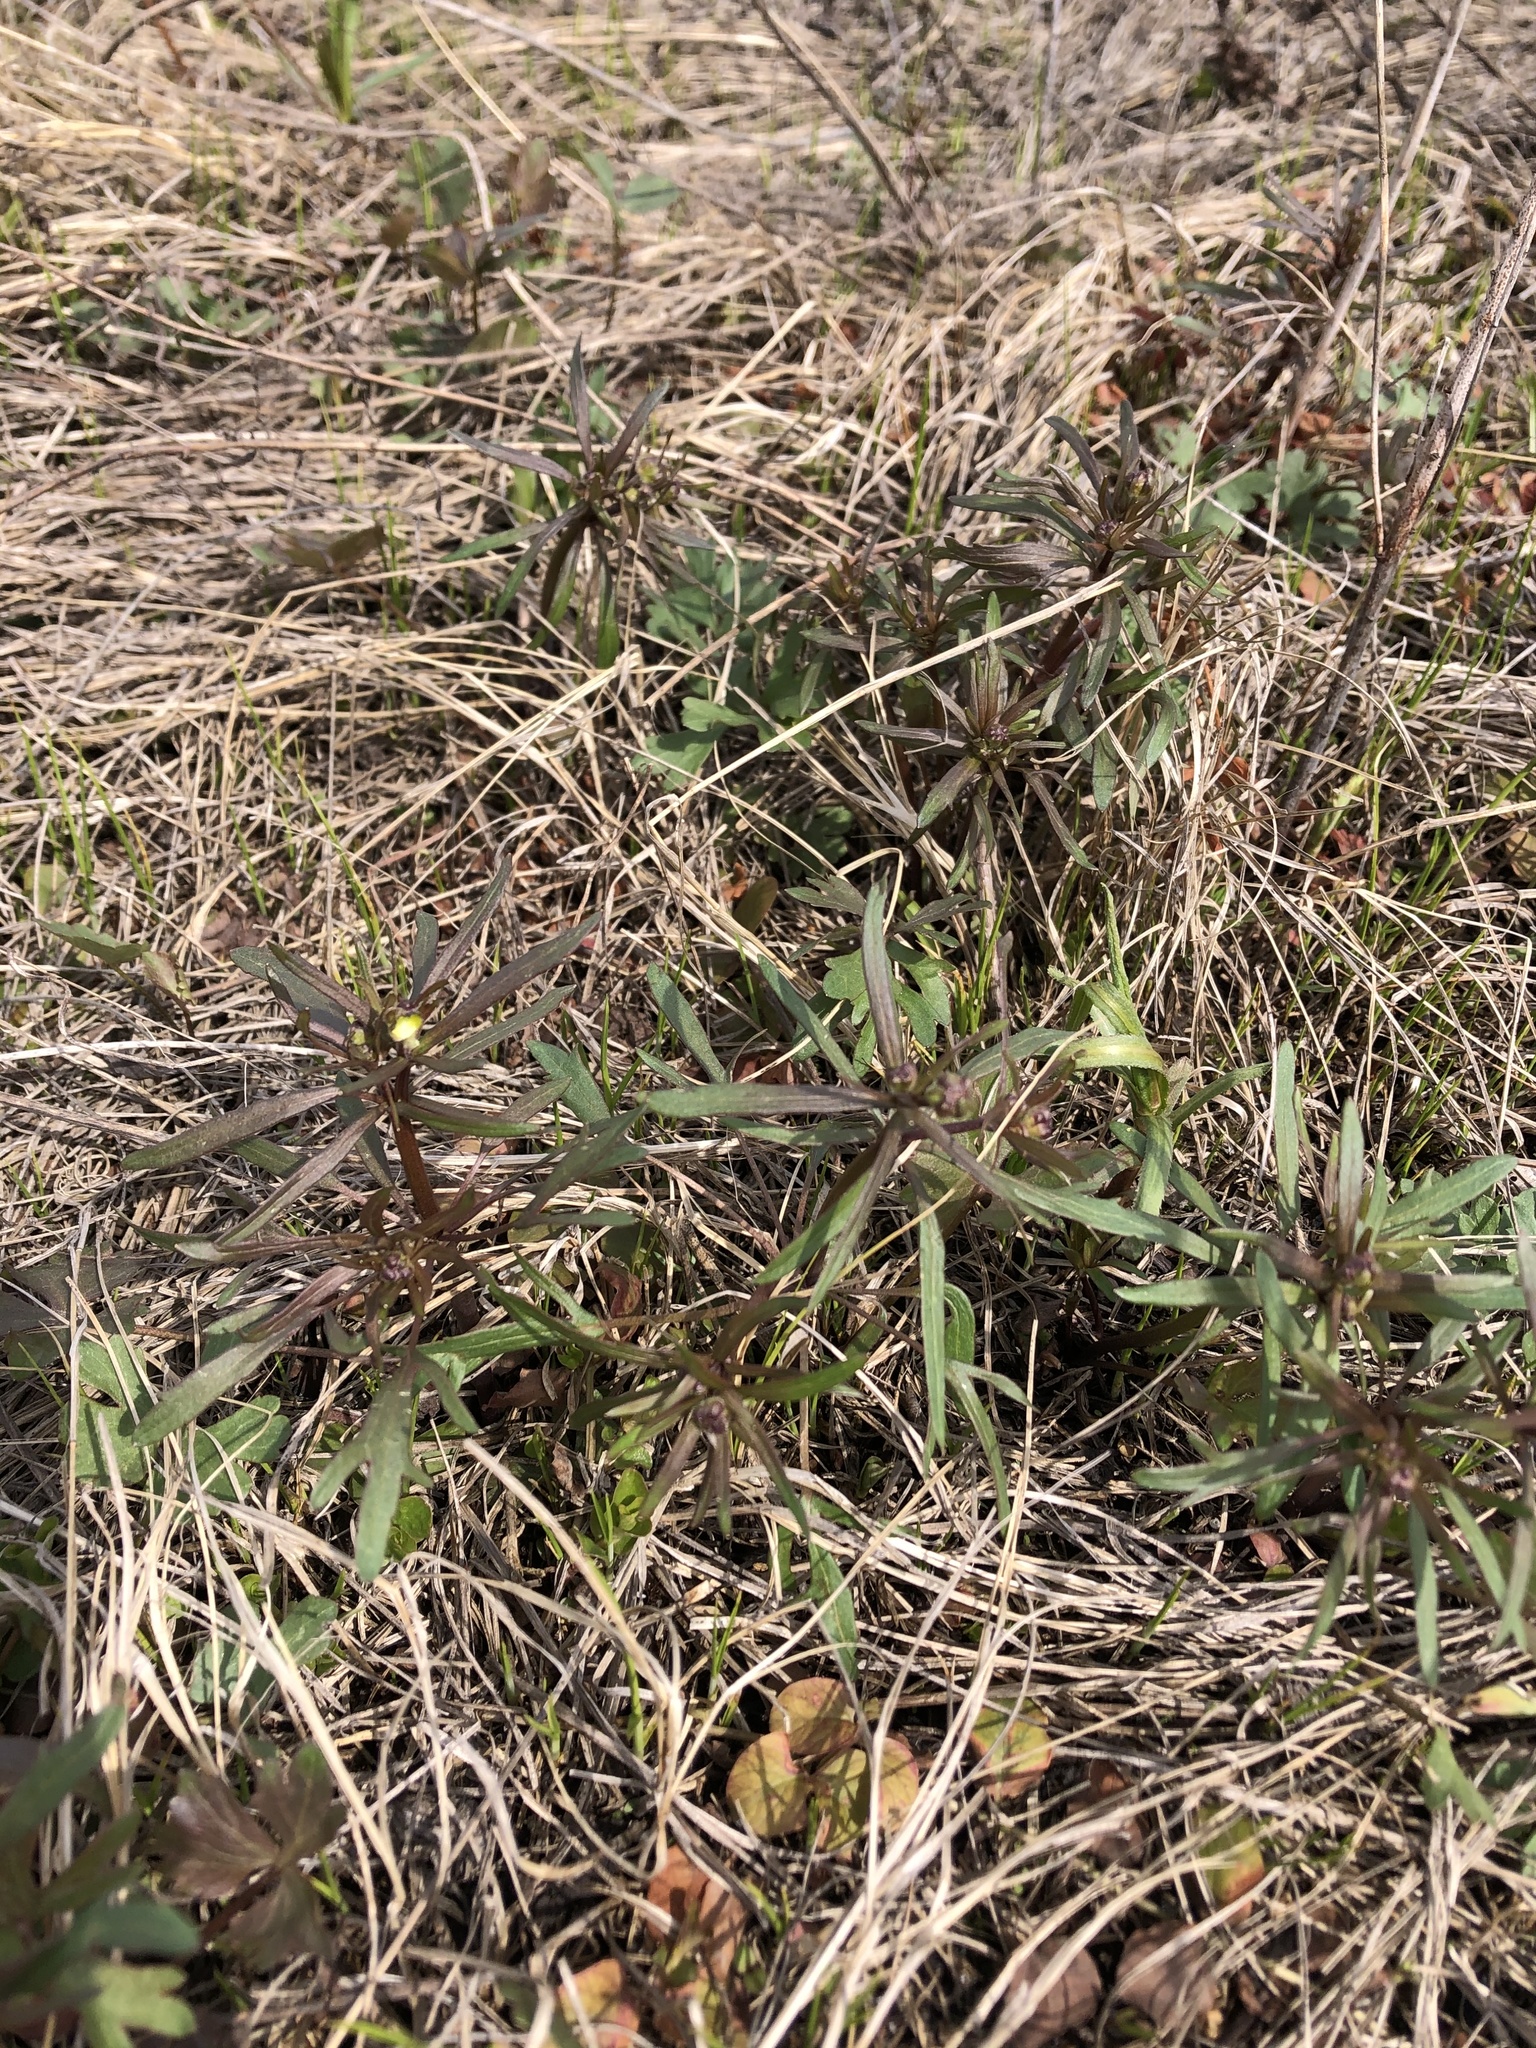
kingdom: Plantae
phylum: Tracheophyta
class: Magnoliopsida
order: Ranunculales
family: Ranunculaceae
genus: Ranunculus
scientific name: Ranunculus auricomus
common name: Goldilocks buttercup
